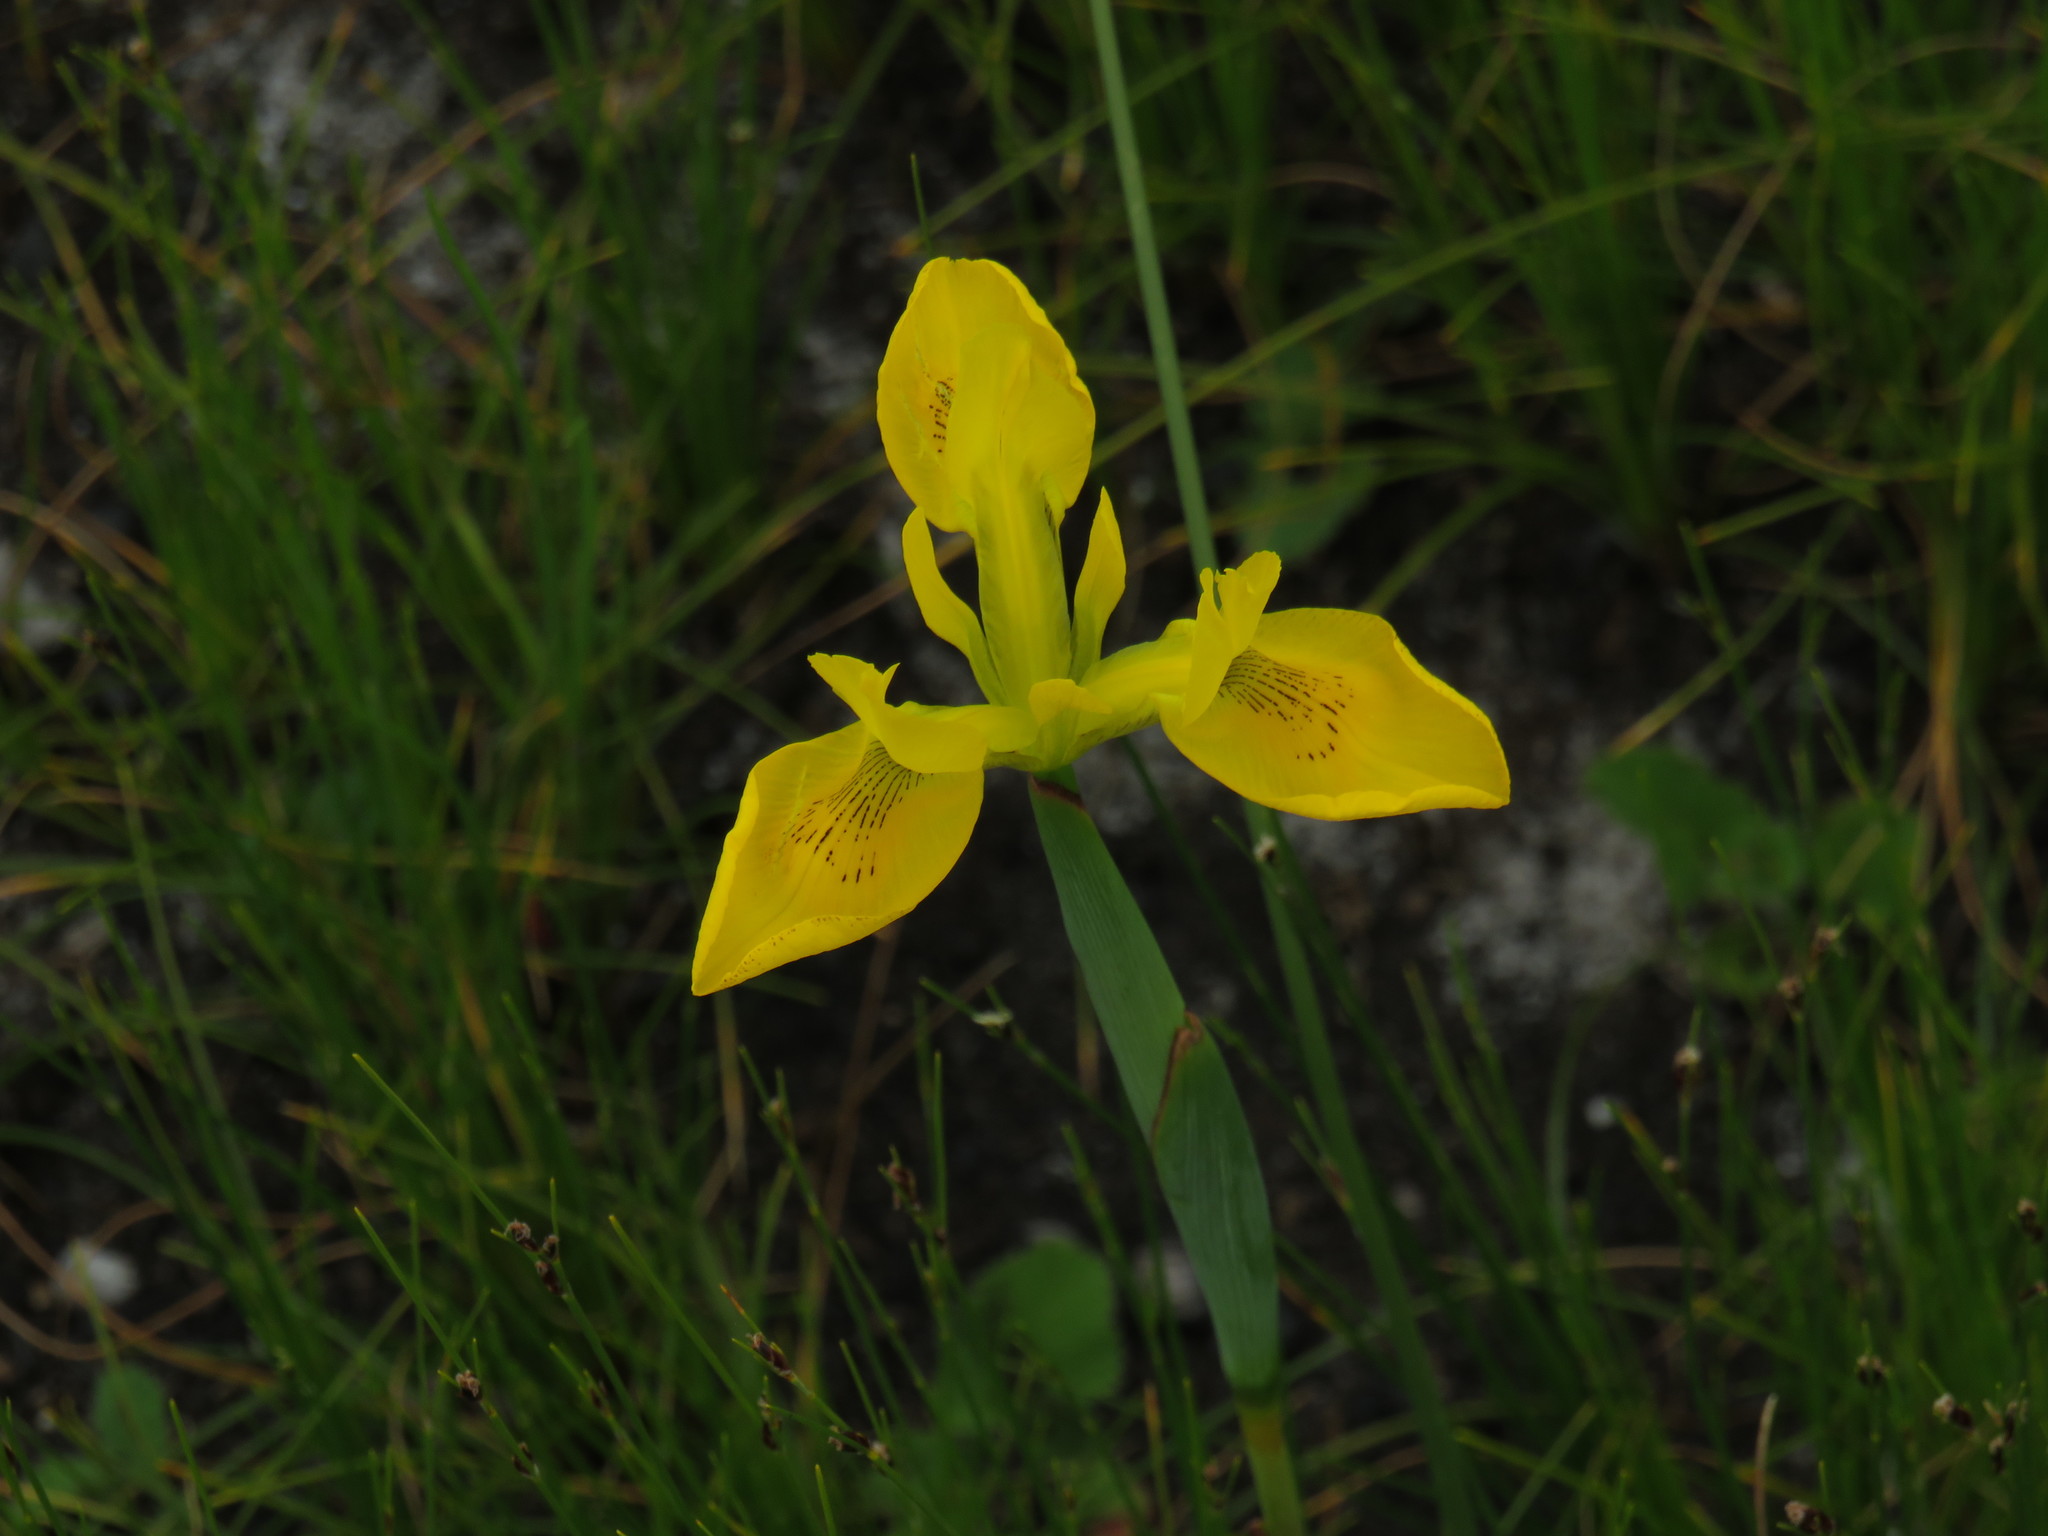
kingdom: Plantae
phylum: Tracheophyta
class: Liliopsida
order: Asparagales
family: Iridaceae
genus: Moraea
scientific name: Moraea neglecta
